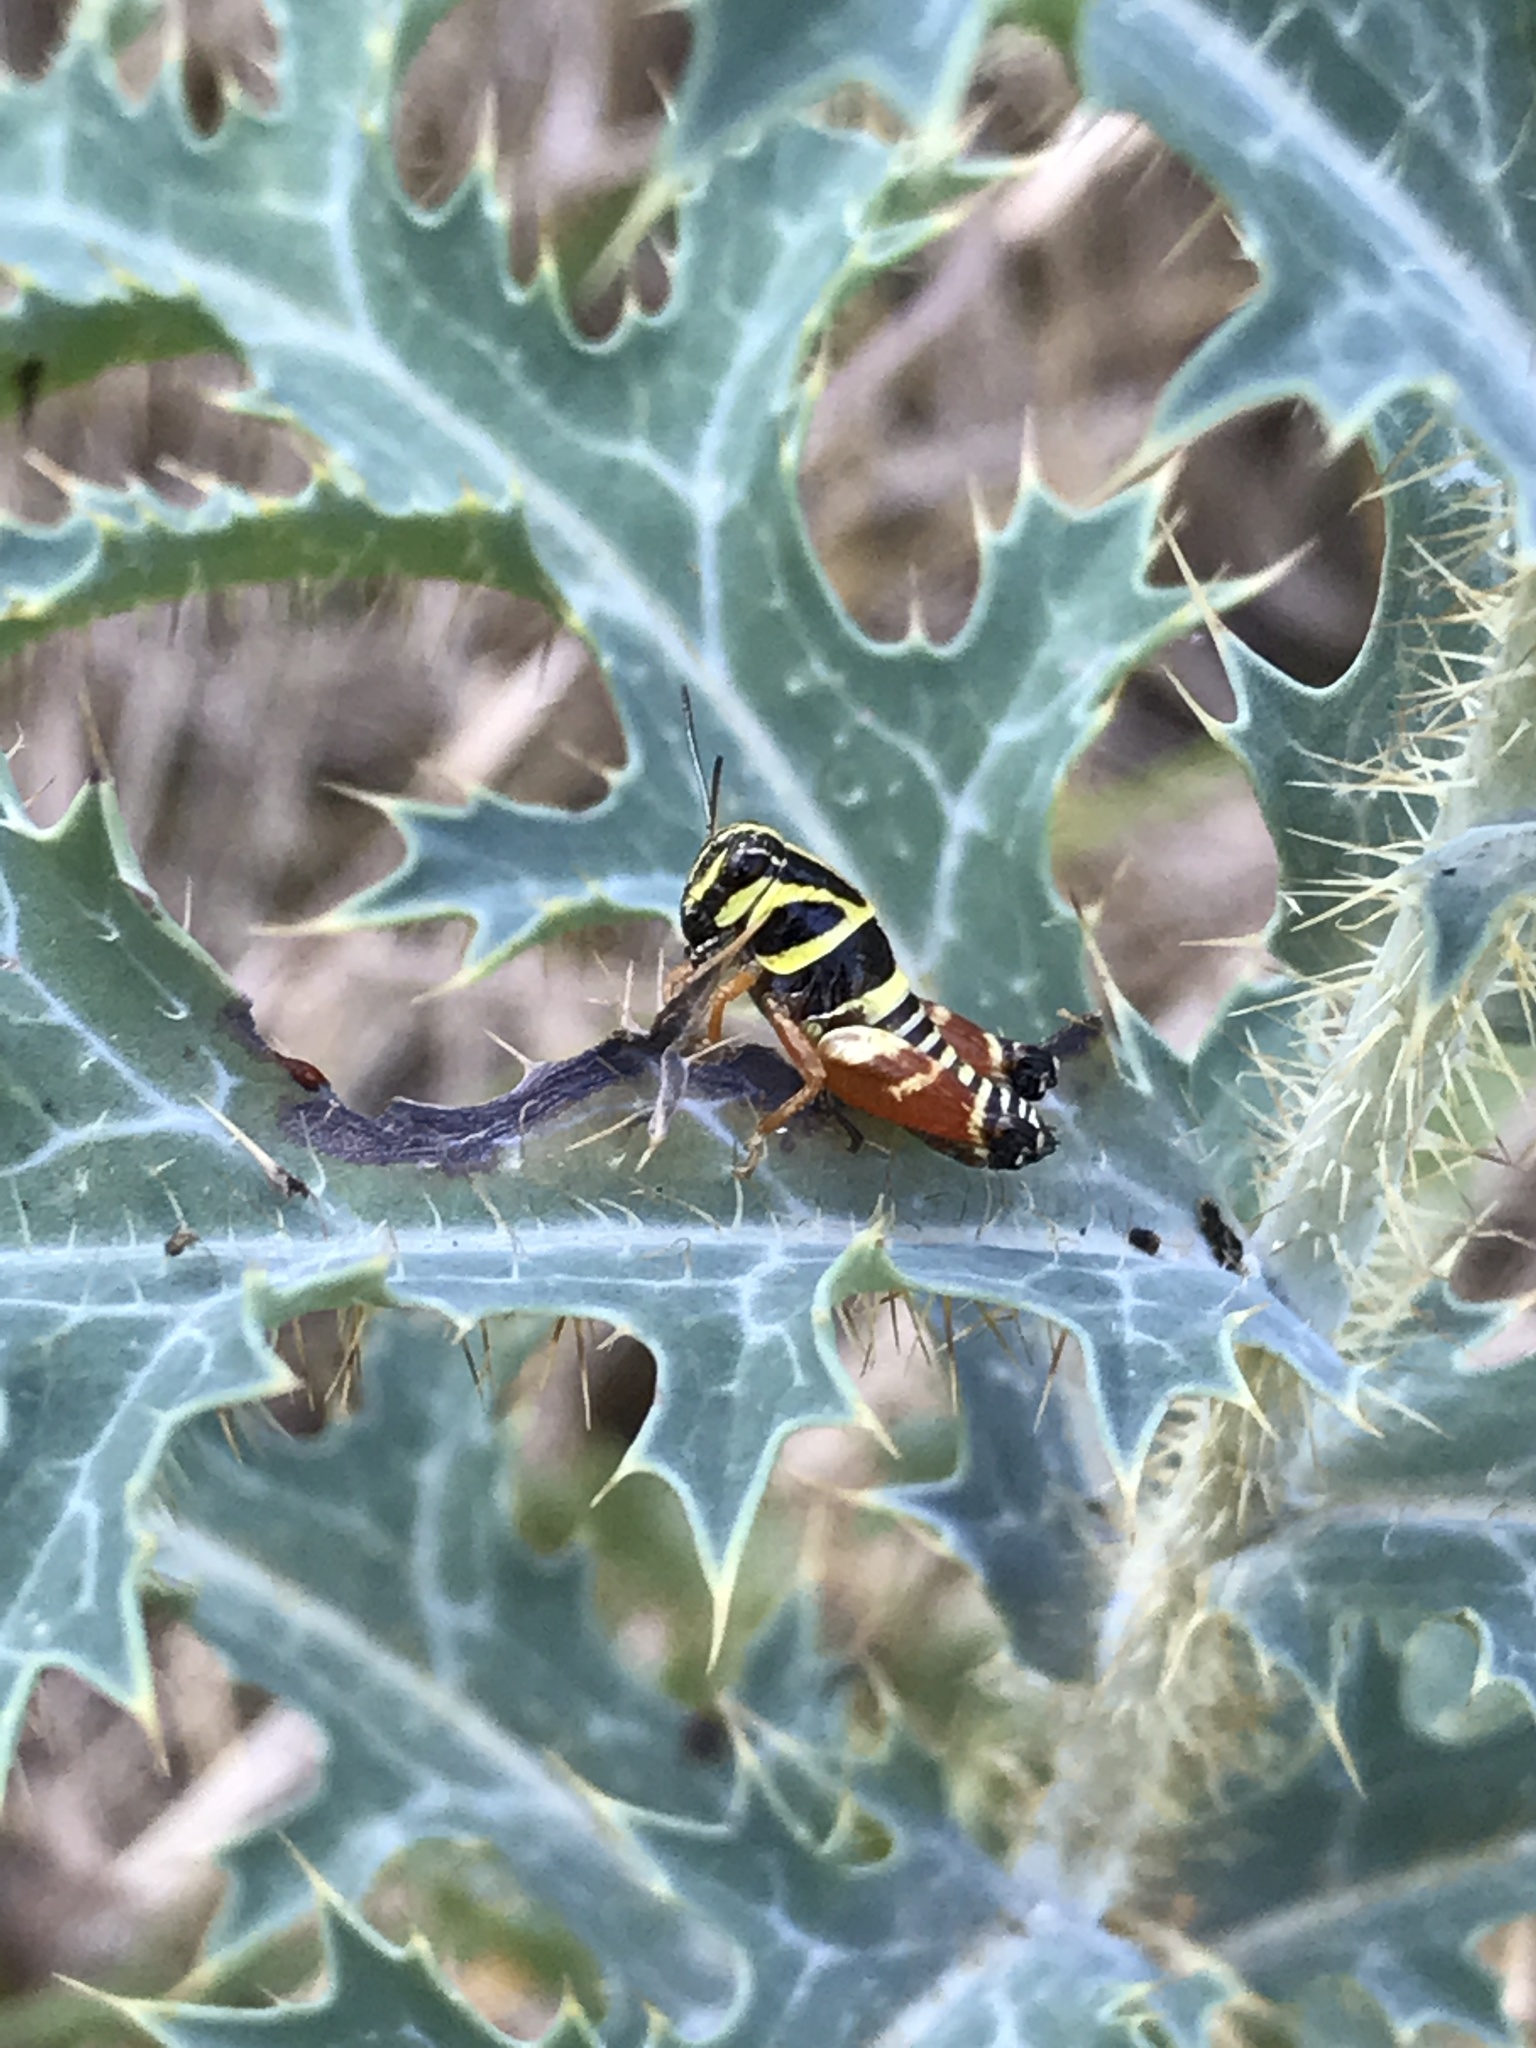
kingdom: Animalia
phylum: Arthropoda
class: Insecta
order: Orthoptera
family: Acrididae
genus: Aidemona
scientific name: Aidemona azteca
